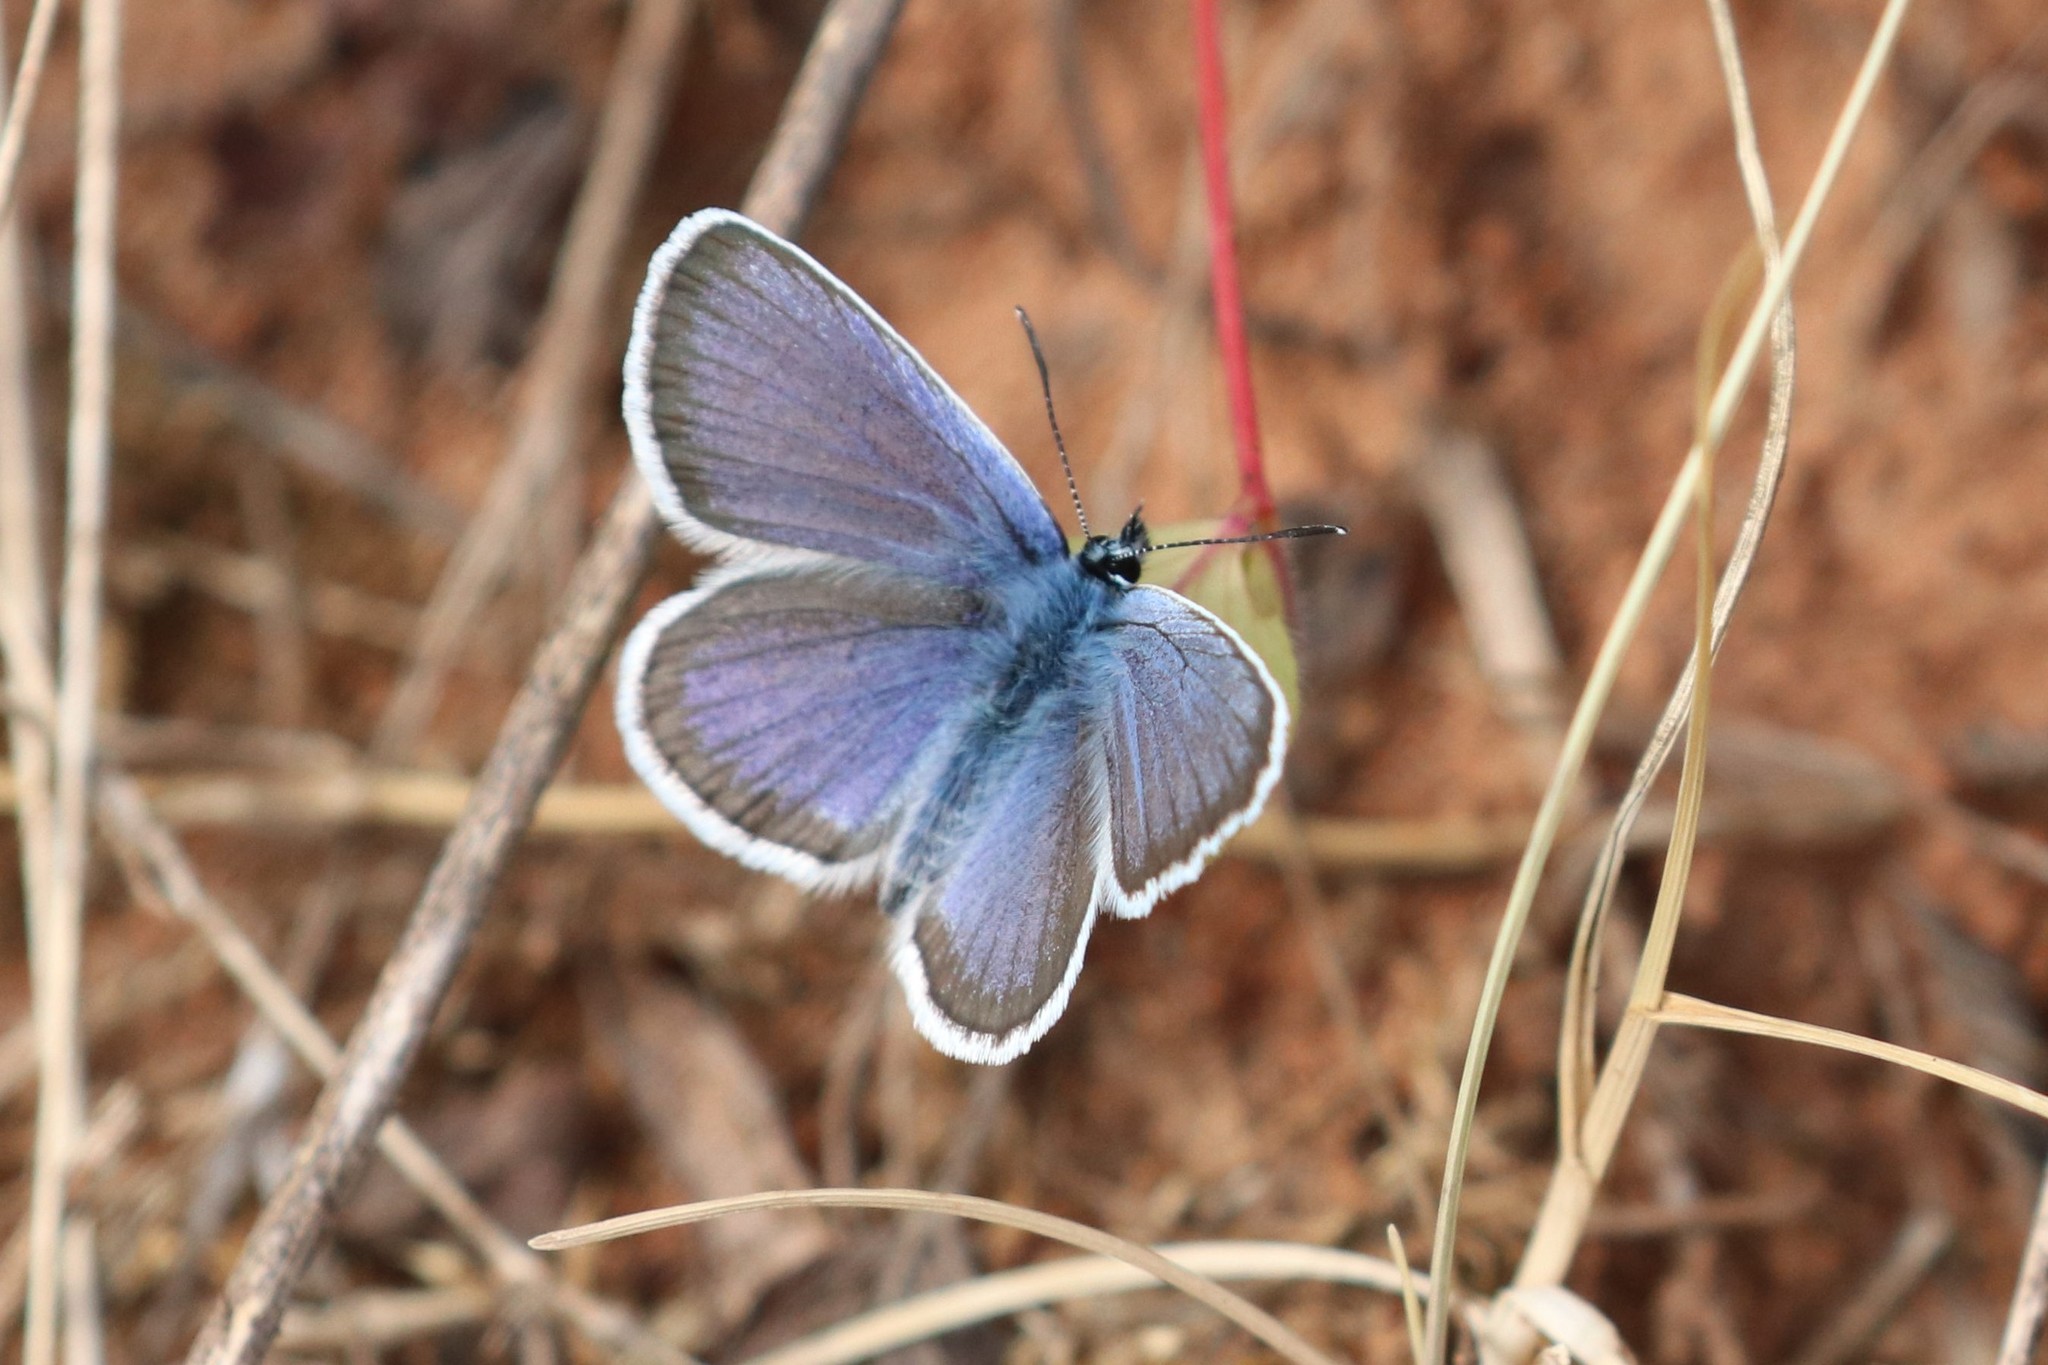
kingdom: Animalia
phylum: Arthropoda
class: Insecta
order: Lepidoptera
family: Lycaenidae
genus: Plebejus
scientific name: Plebejus argus
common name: Silver-studded blue
